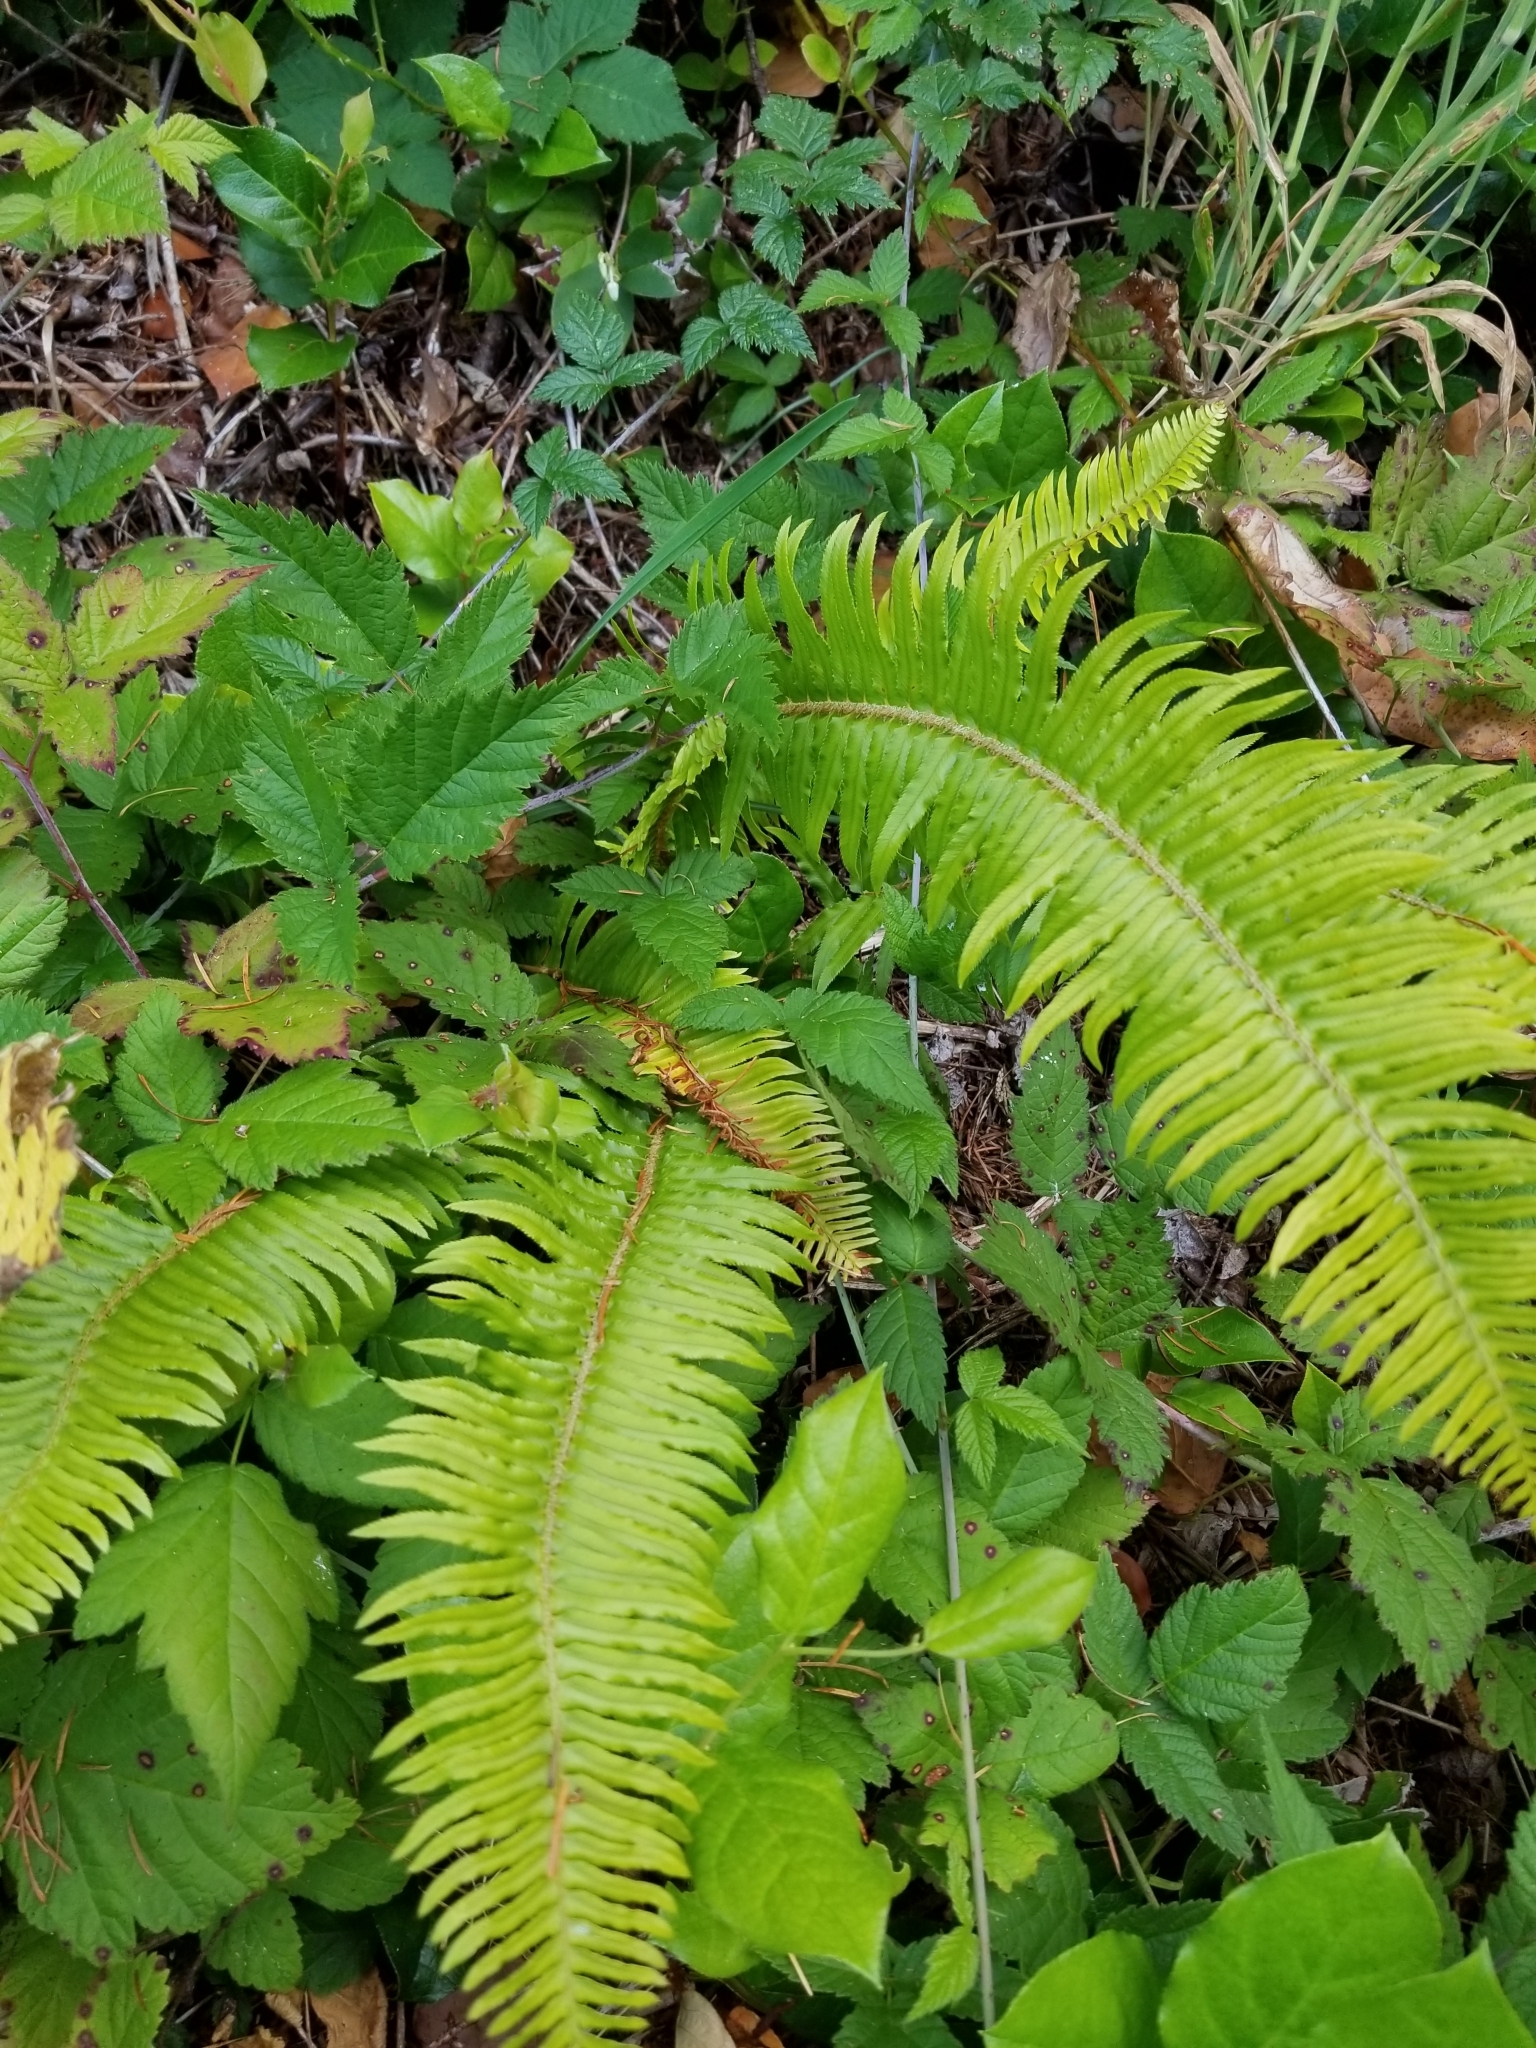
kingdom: Plantae
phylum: Tracheophyta
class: Polypodiopsida
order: Polypodiales
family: Dryopteridaceae
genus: Polystichum
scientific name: Polystichum munitum
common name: Western sword-fern
